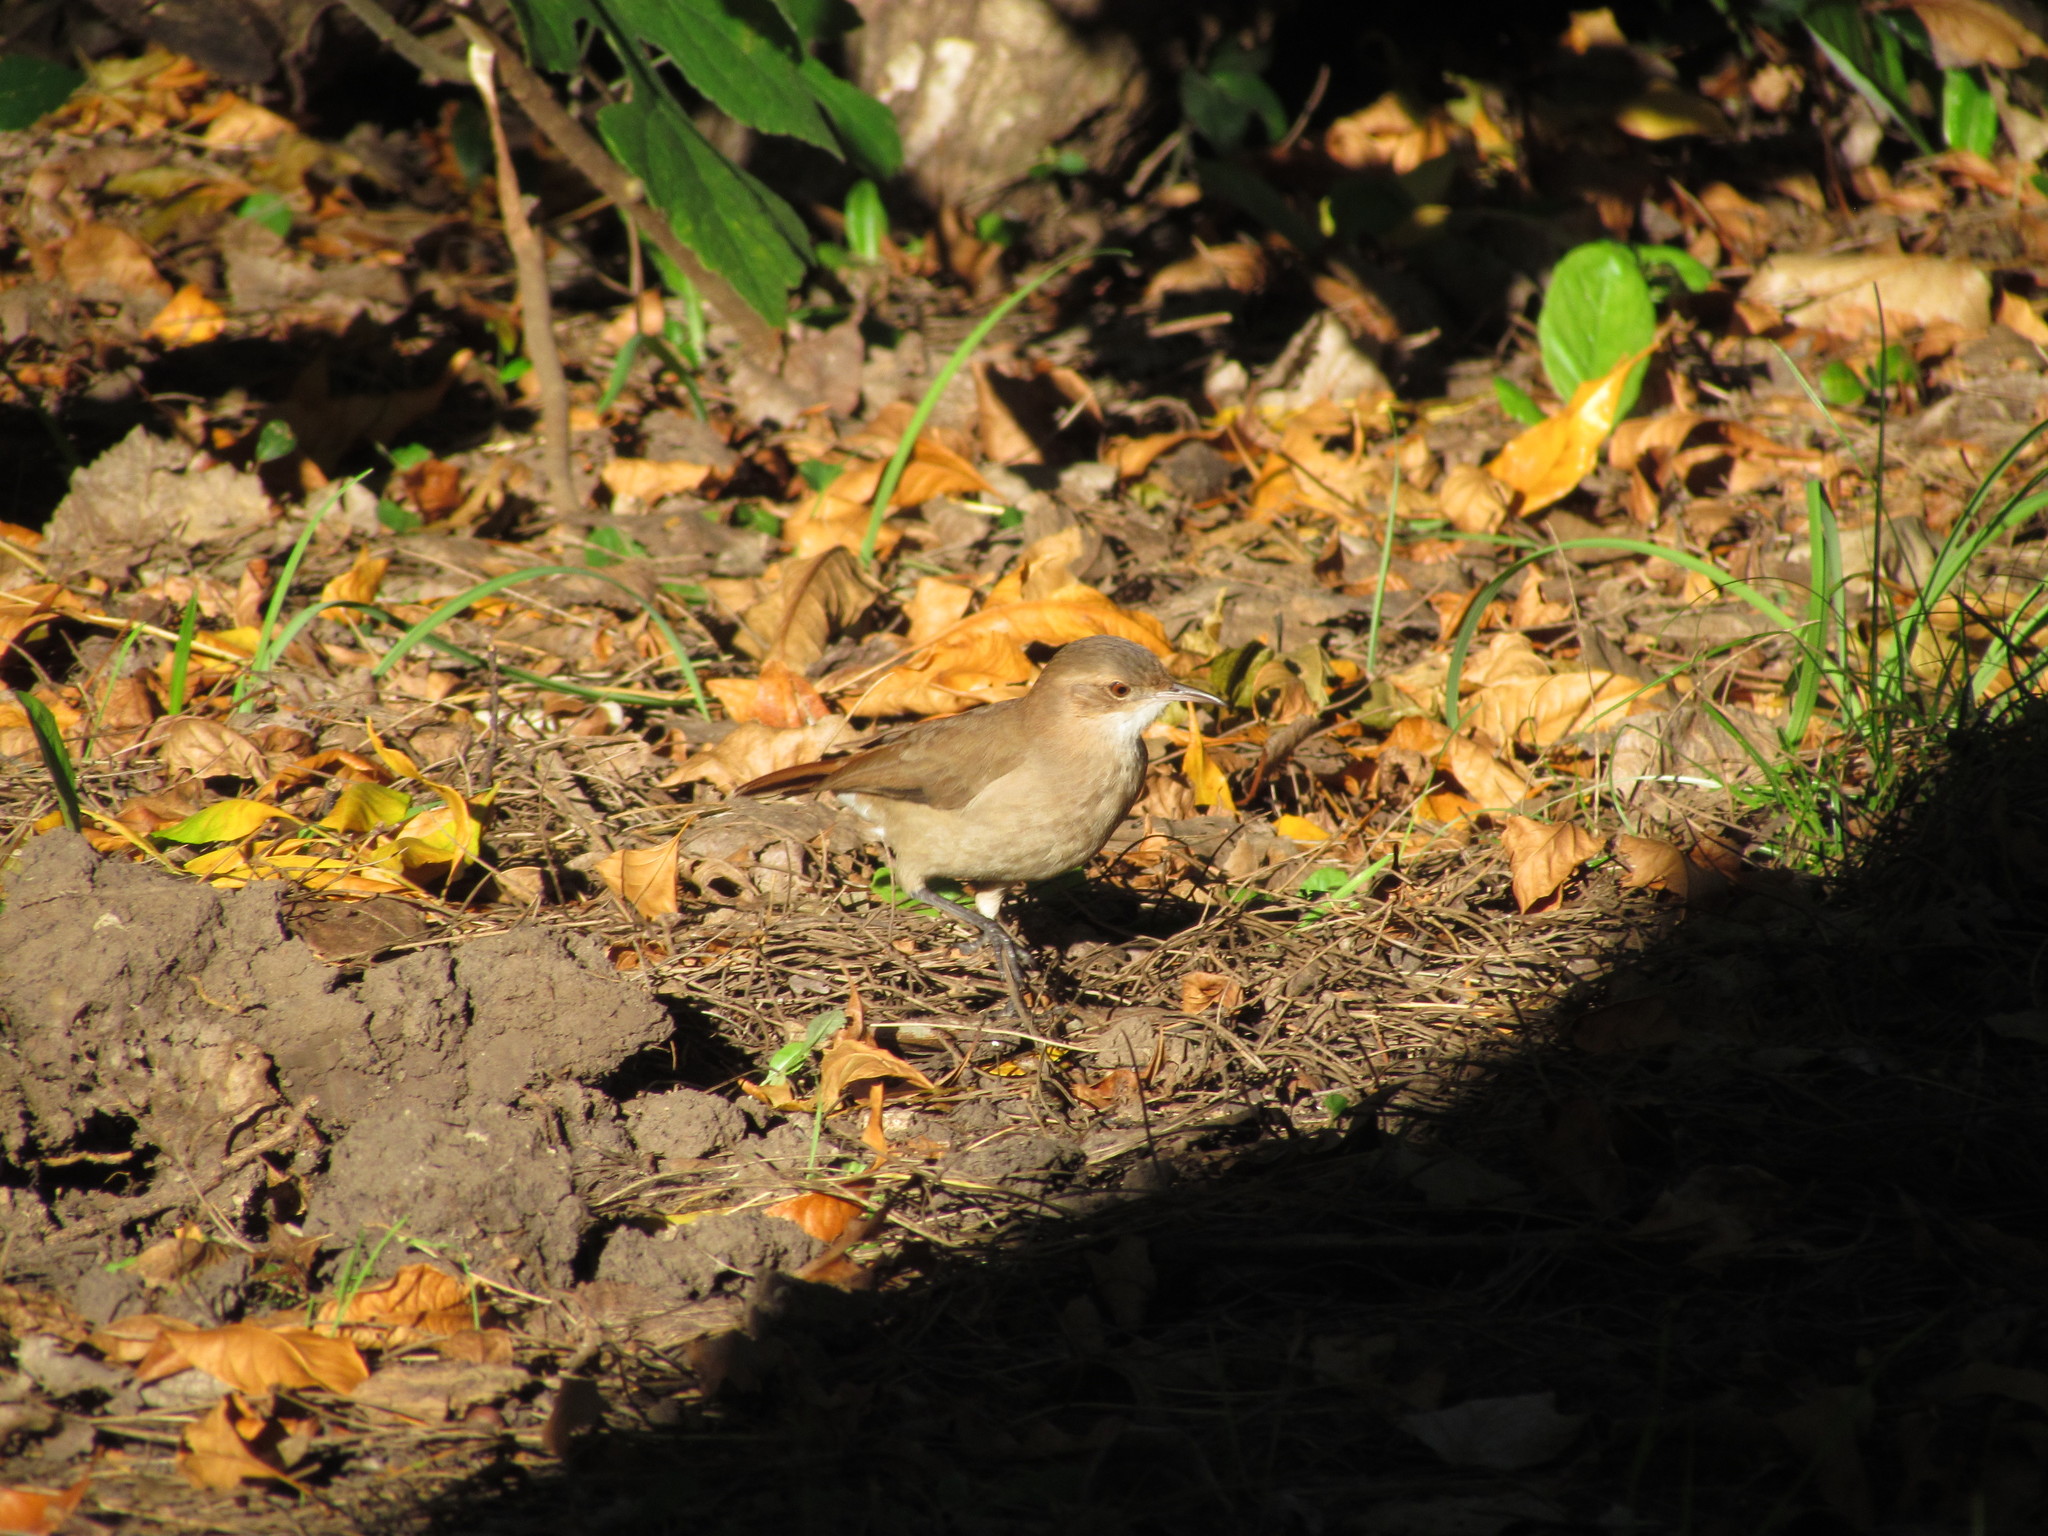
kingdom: Animalia
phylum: Chordata
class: Aves
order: Passeriformes
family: Furnariidae
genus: Furnarius
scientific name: Furnarius rufus
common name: Rufous hornero
